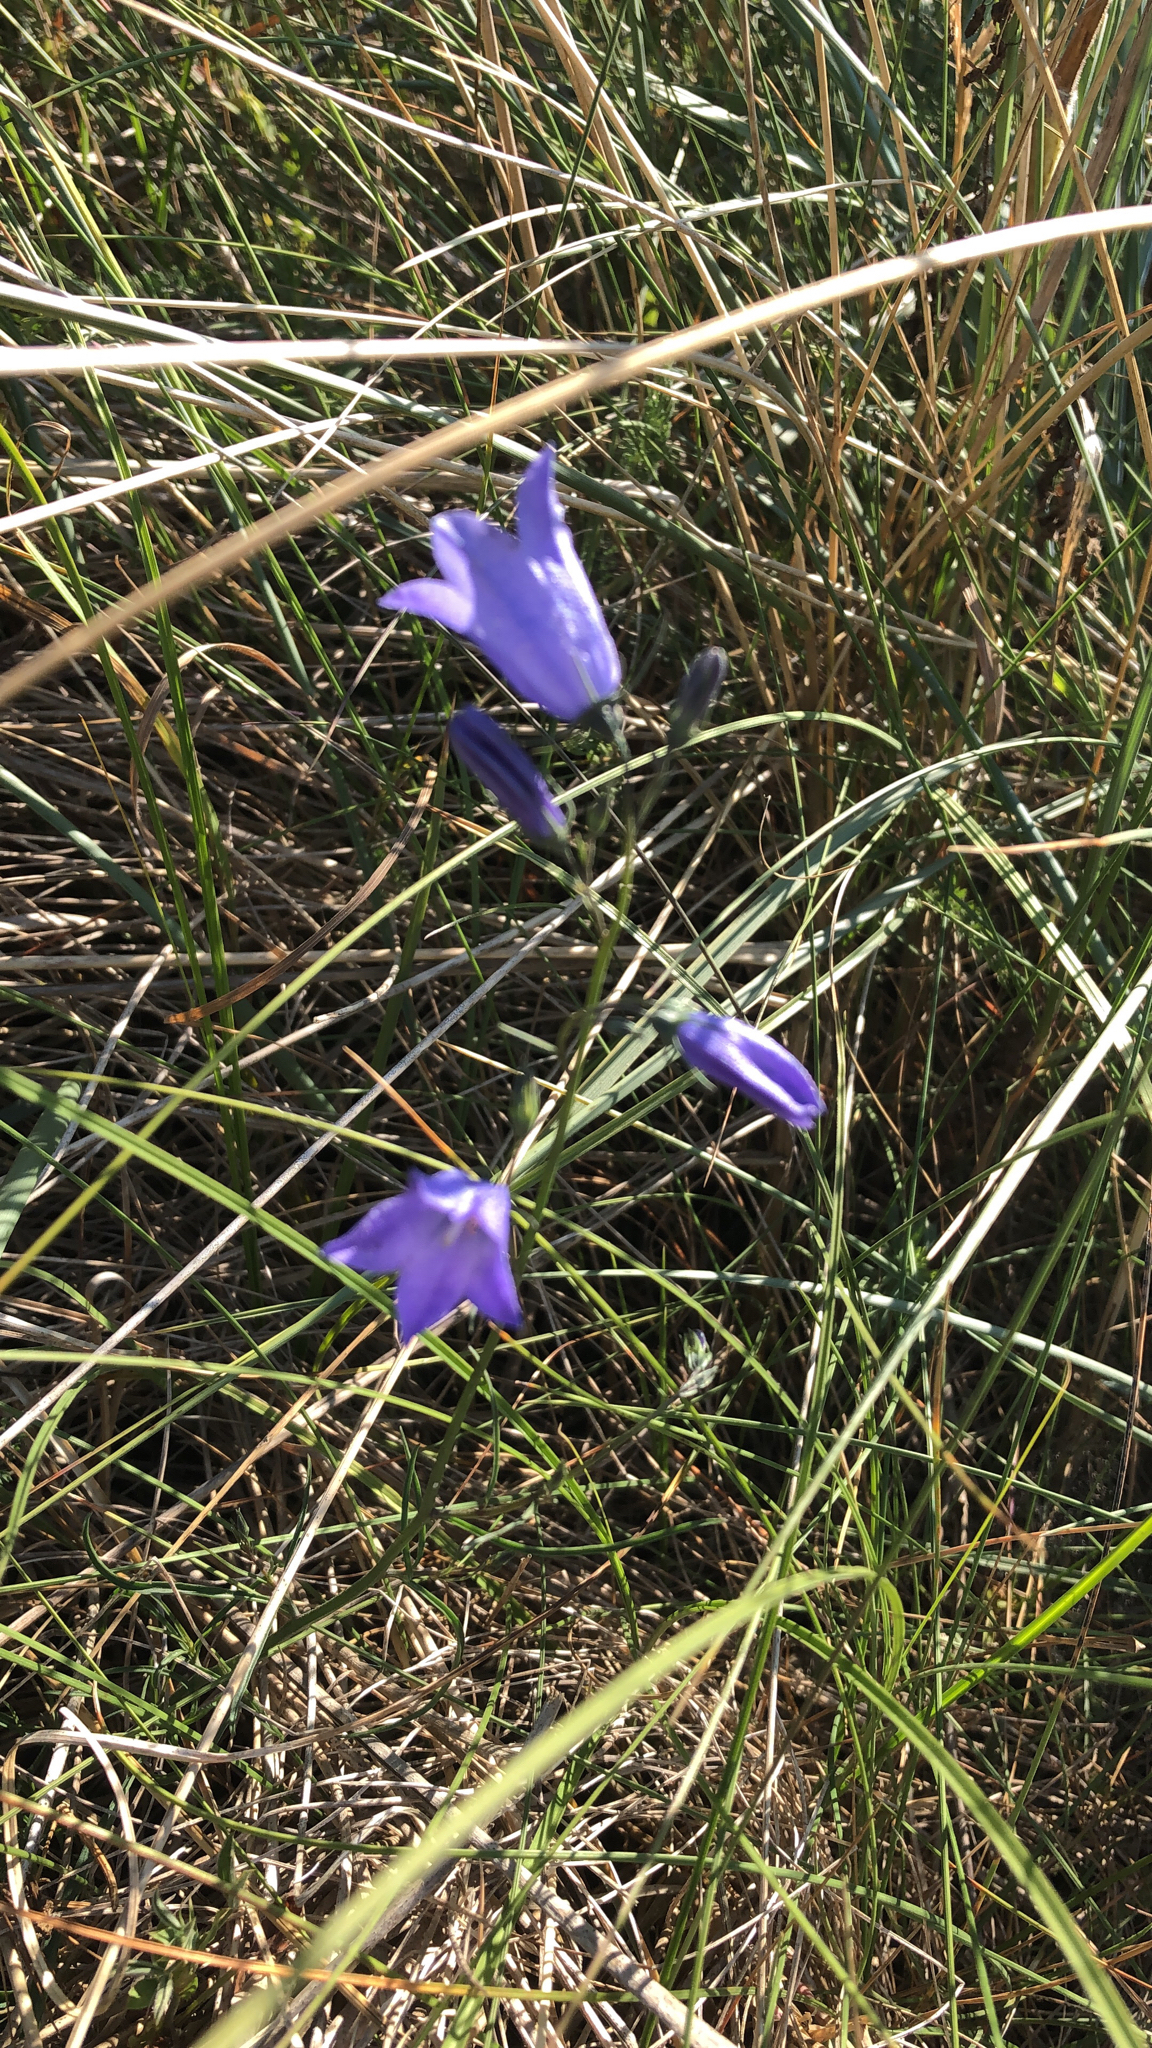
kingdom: Plantae
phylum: Tracheophyta
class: Magnoliopsida
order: Asterales
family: Campanulaceae
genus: Campanula
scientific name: Campanula rotundifolia
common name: Harebell
